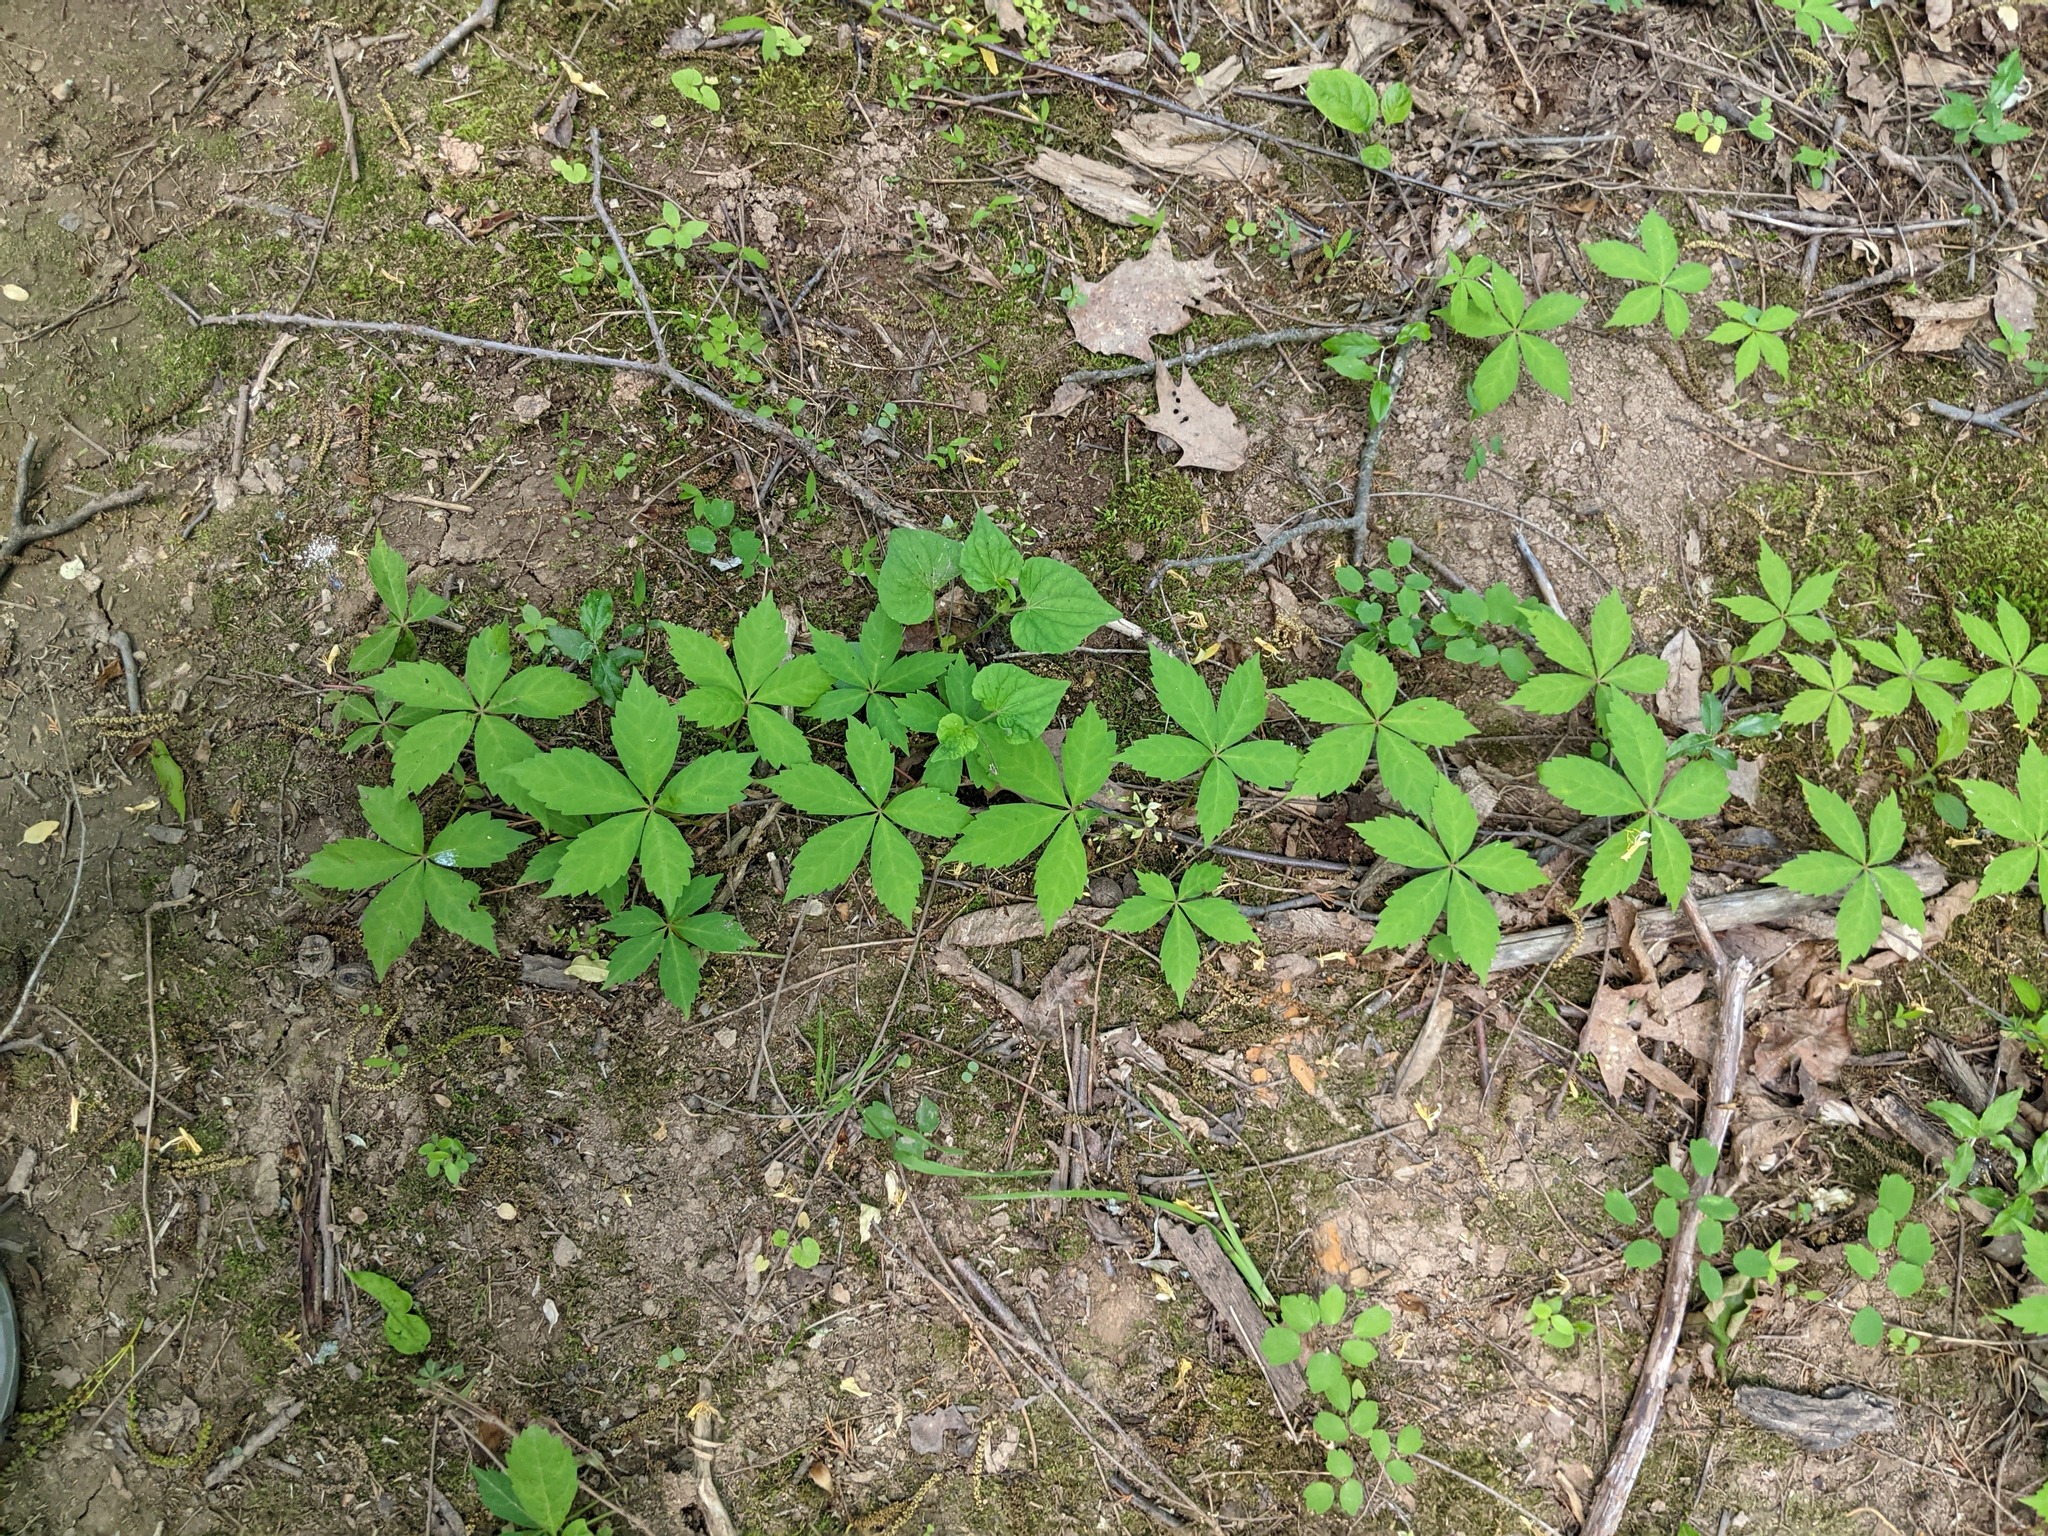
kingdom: Plantae
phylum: Tracheophyta
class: Magnoliopsida
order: Vitales
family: Vitaceae
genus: Parthenocissus
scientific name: Parthenocissus quinquefolia
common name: Virginia-creeper
